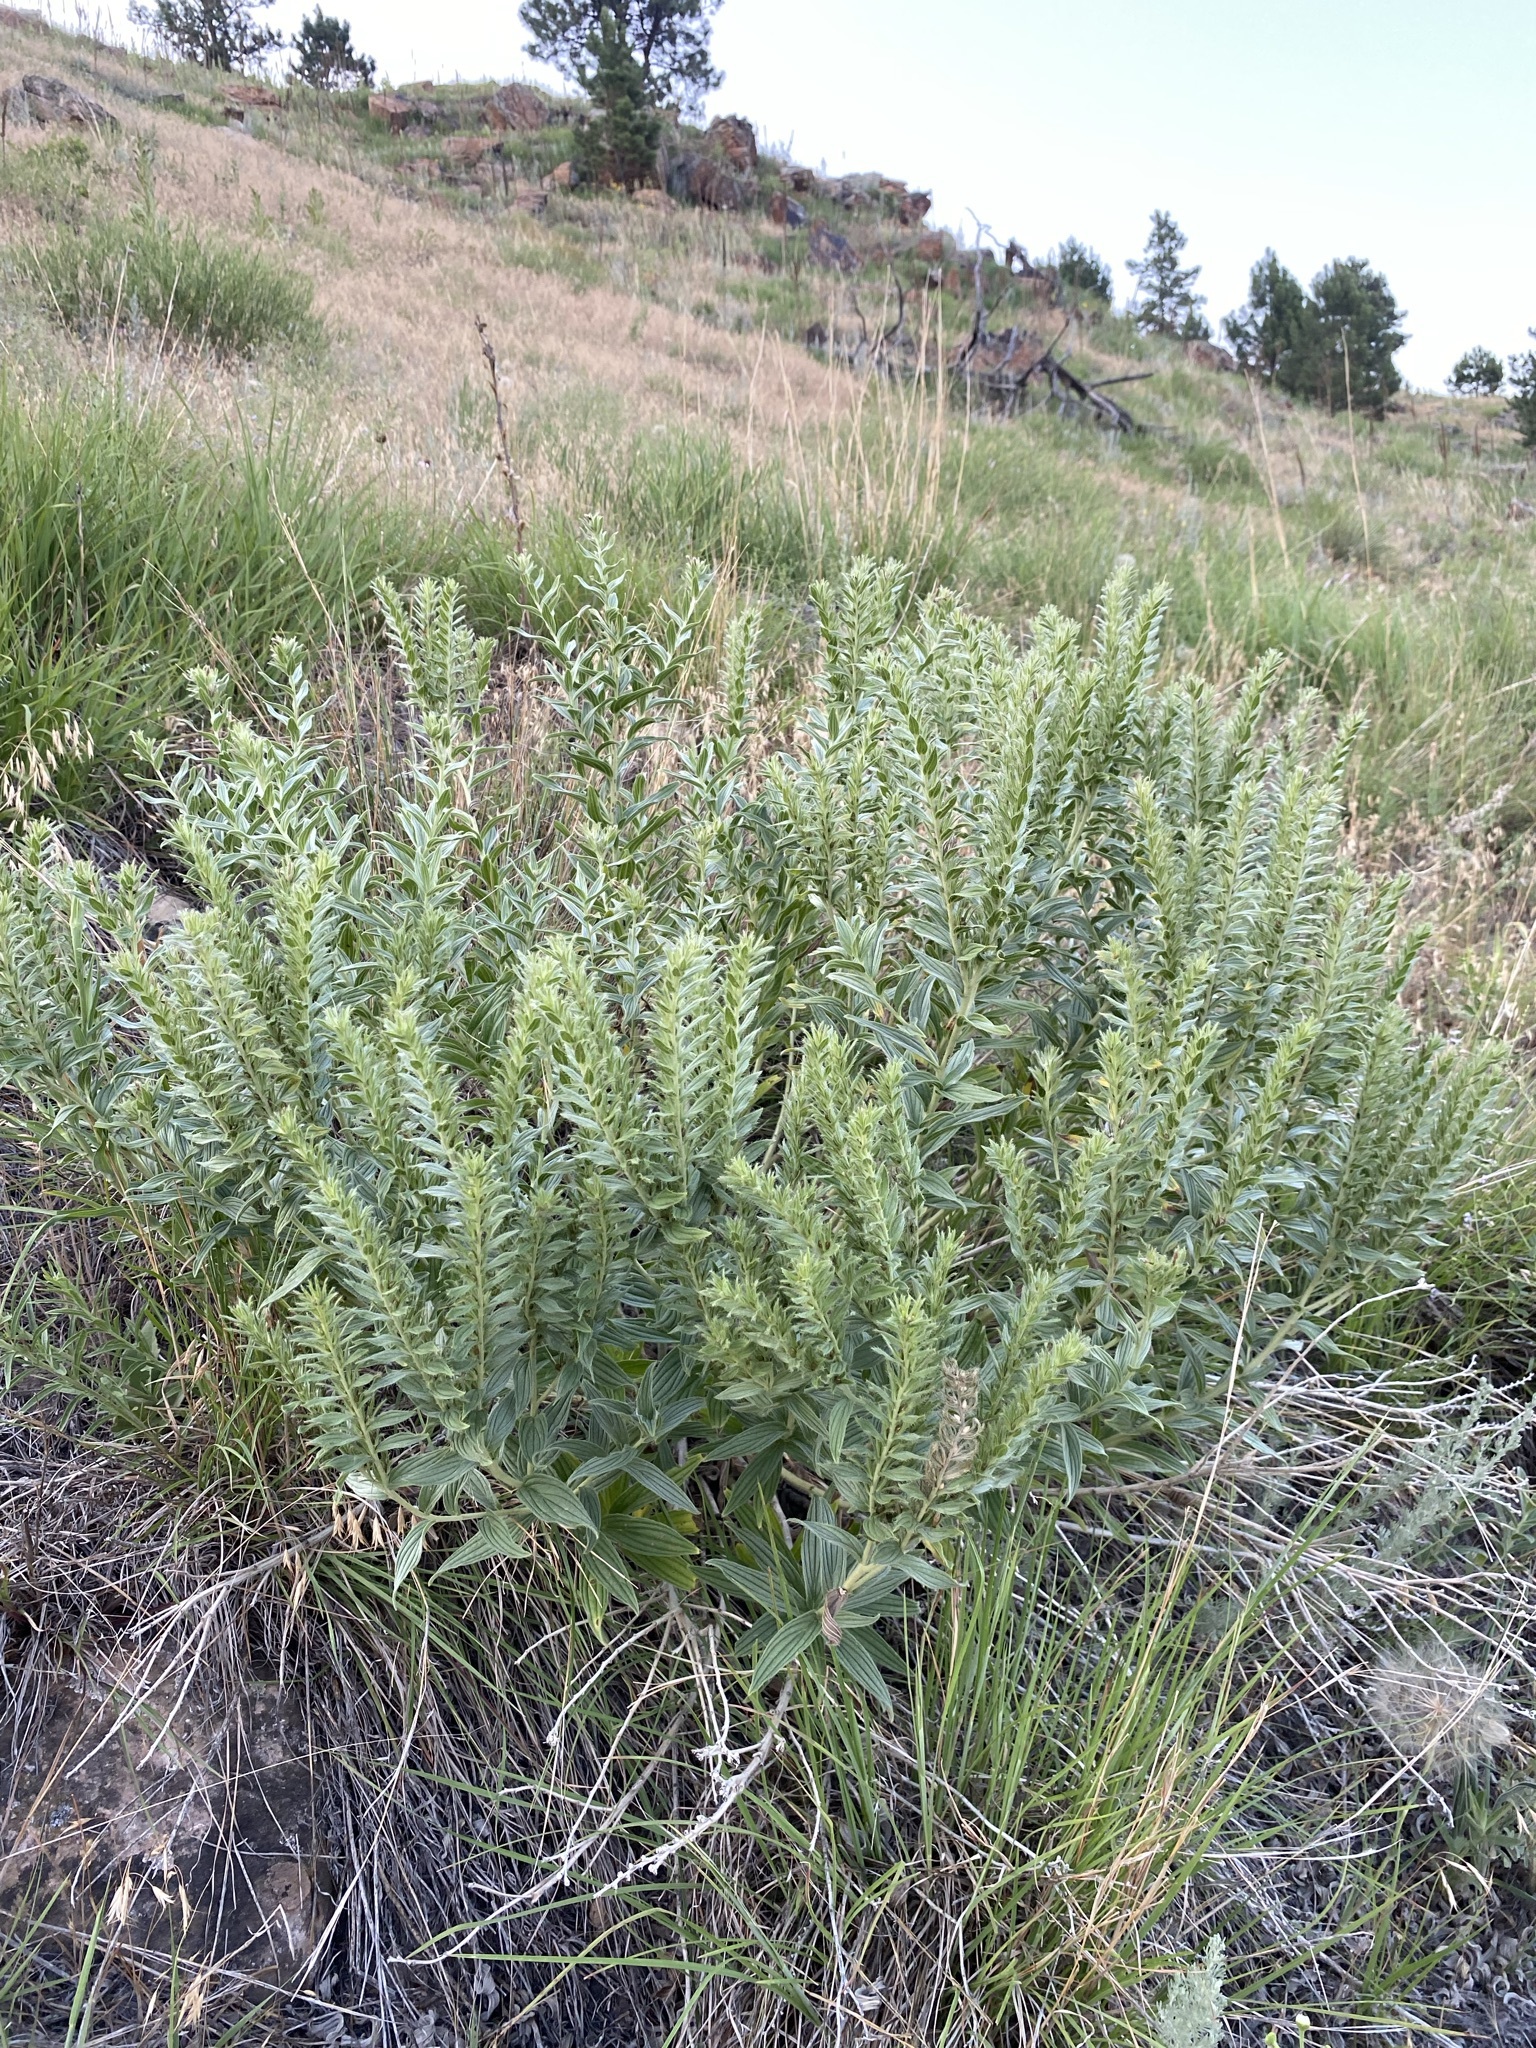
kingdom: Plantae
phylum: Tracheophyta
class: Magnoliopsida
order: Boraginales
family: Boraginaceae
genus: Lithospermum
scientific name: Lithospermum occidentale
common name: Western false gromwell
